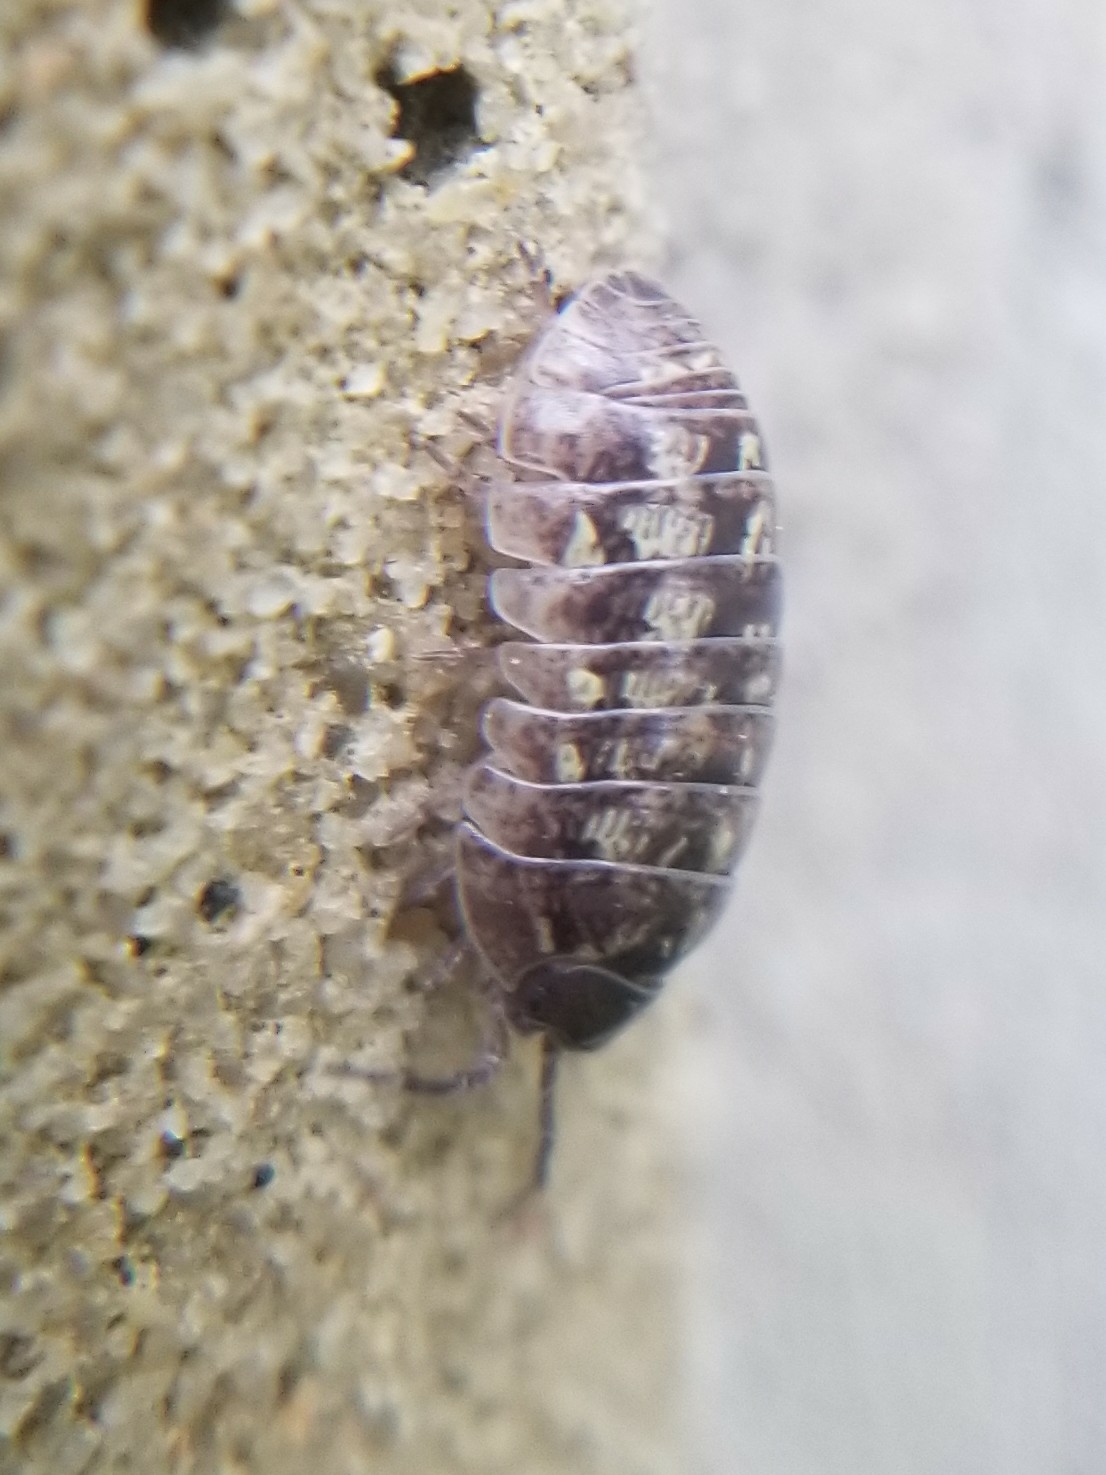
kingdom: Animalia
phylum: Arthropoda
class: Malacostraca
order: Isopoda
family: Armadillidiidae
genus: Armadillidium
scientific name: Armadillidium vulgare
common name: Common pill woodlouse
